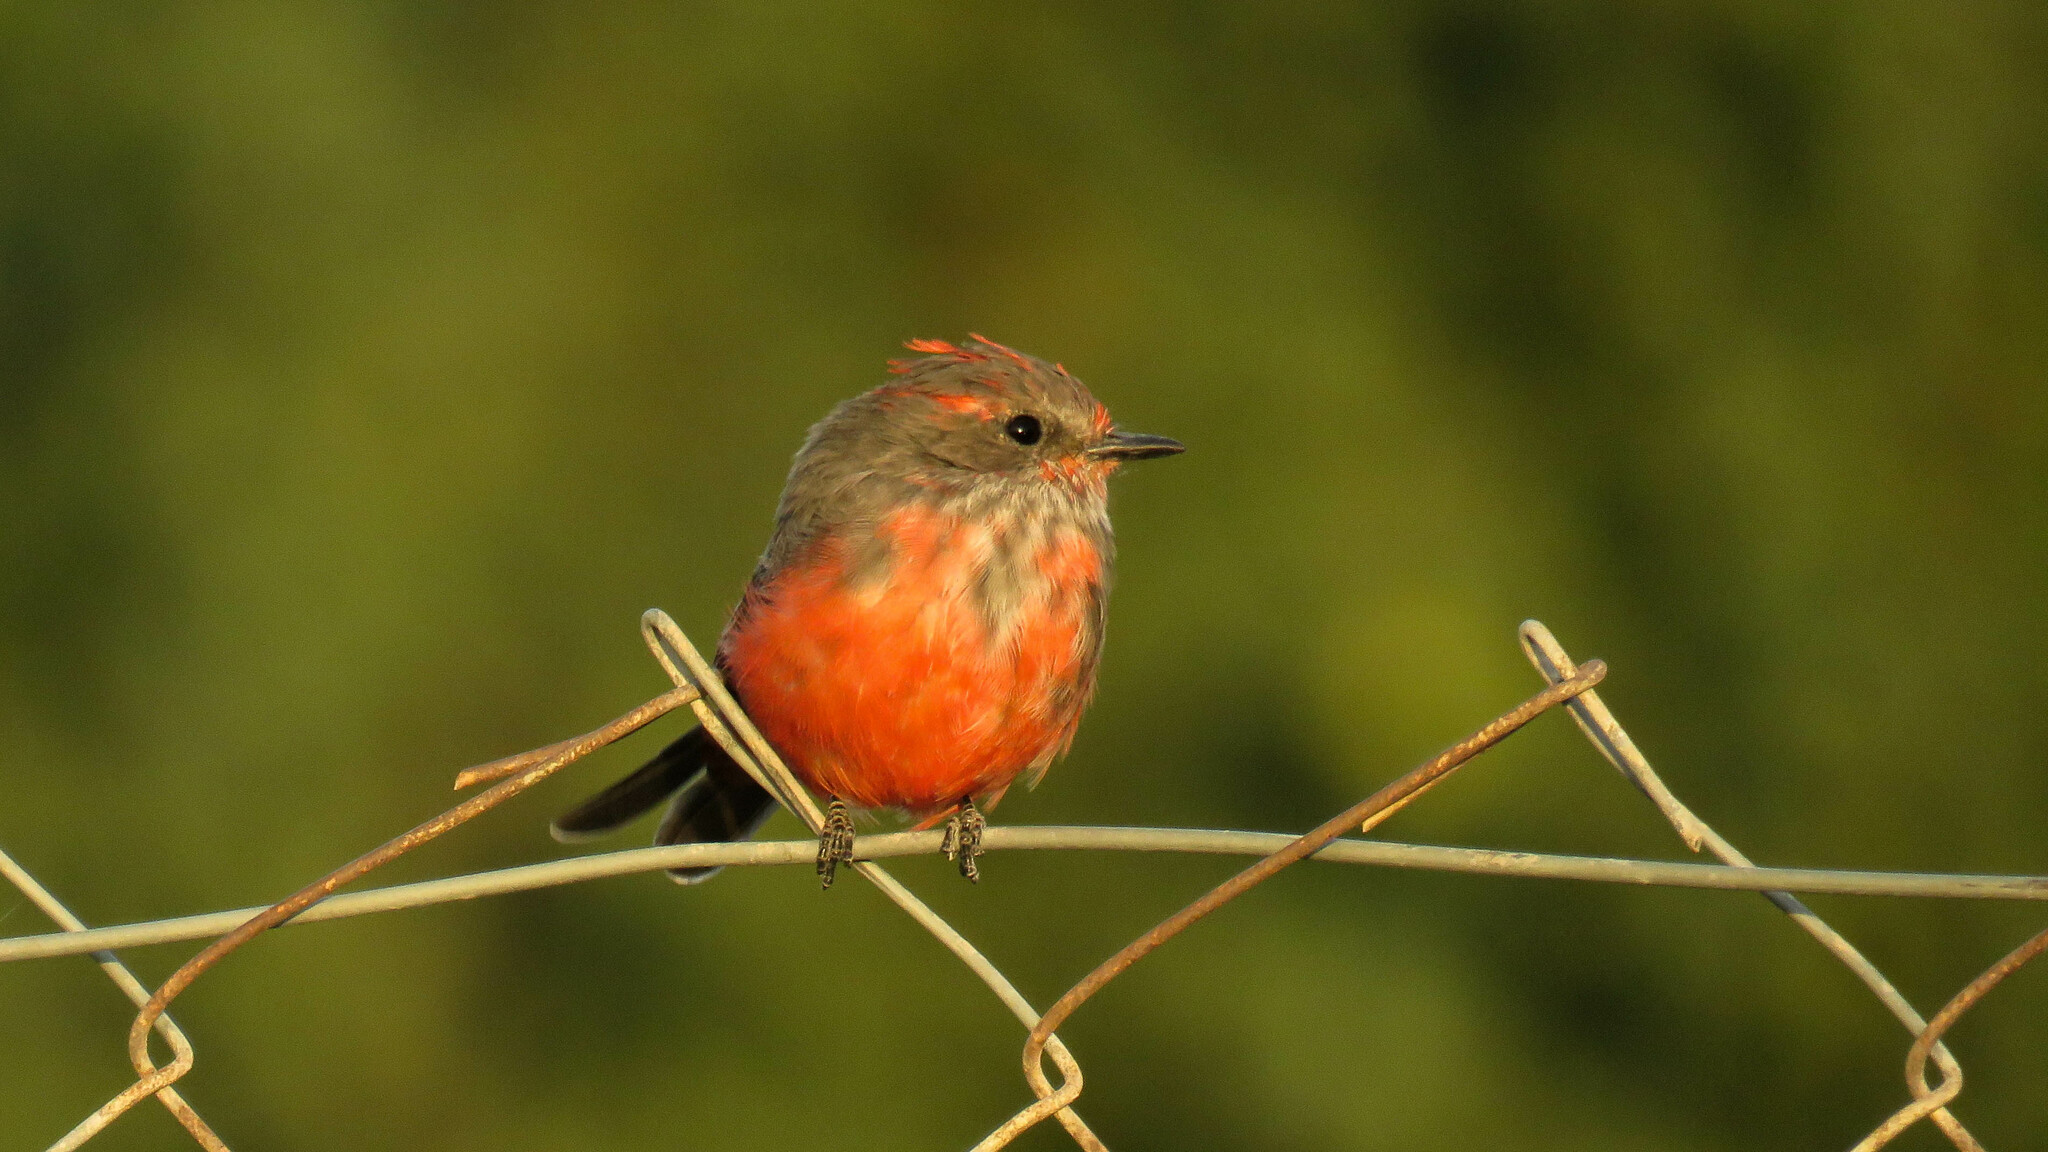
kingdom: Animalia
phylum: Chordata
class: Aves
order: Passeriformes
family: Tyrannidae
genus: Pyrocephalus
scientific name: Pyrocephalus rubinus
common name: Vermilion flycatcher
